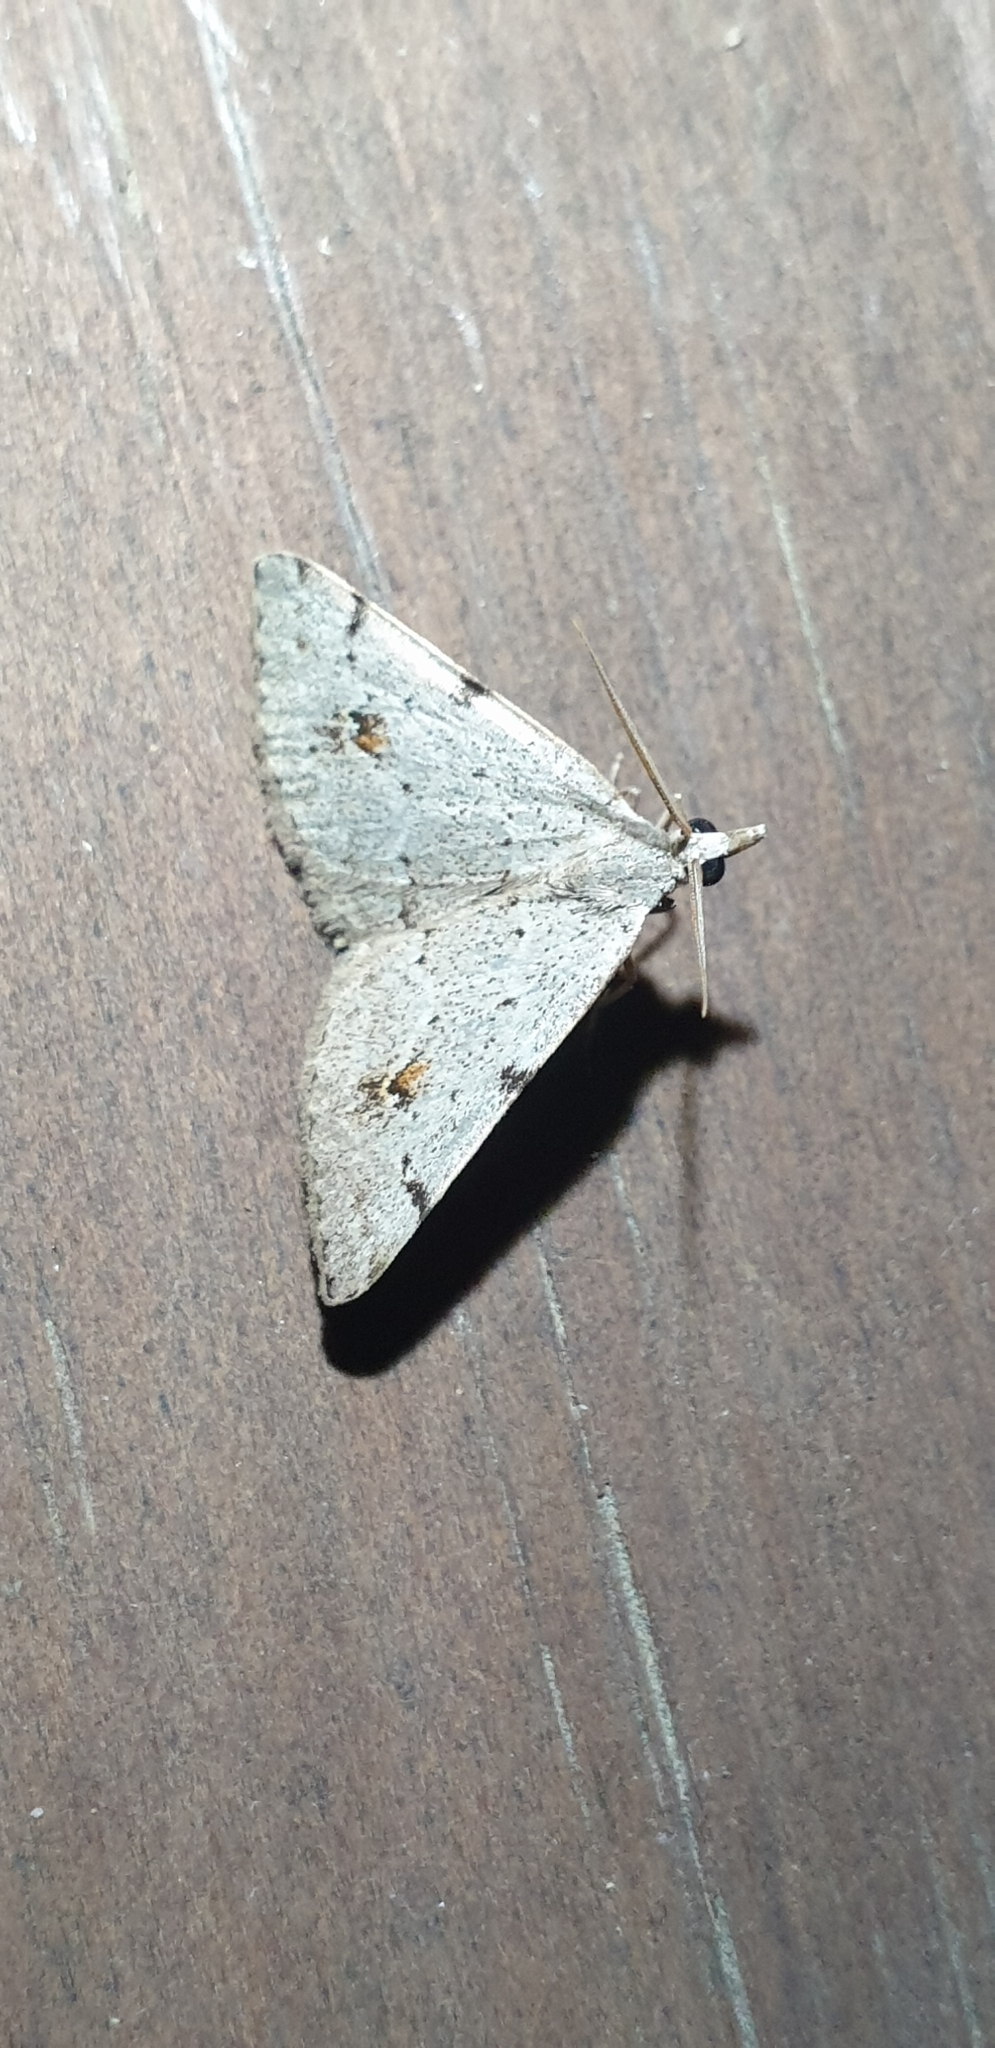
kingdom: Animalia
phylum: Arthropoda
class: Insecta
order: Lepidoptera
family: Geometridae
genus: Dichromodes
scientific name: Dichromodes estigmaria
